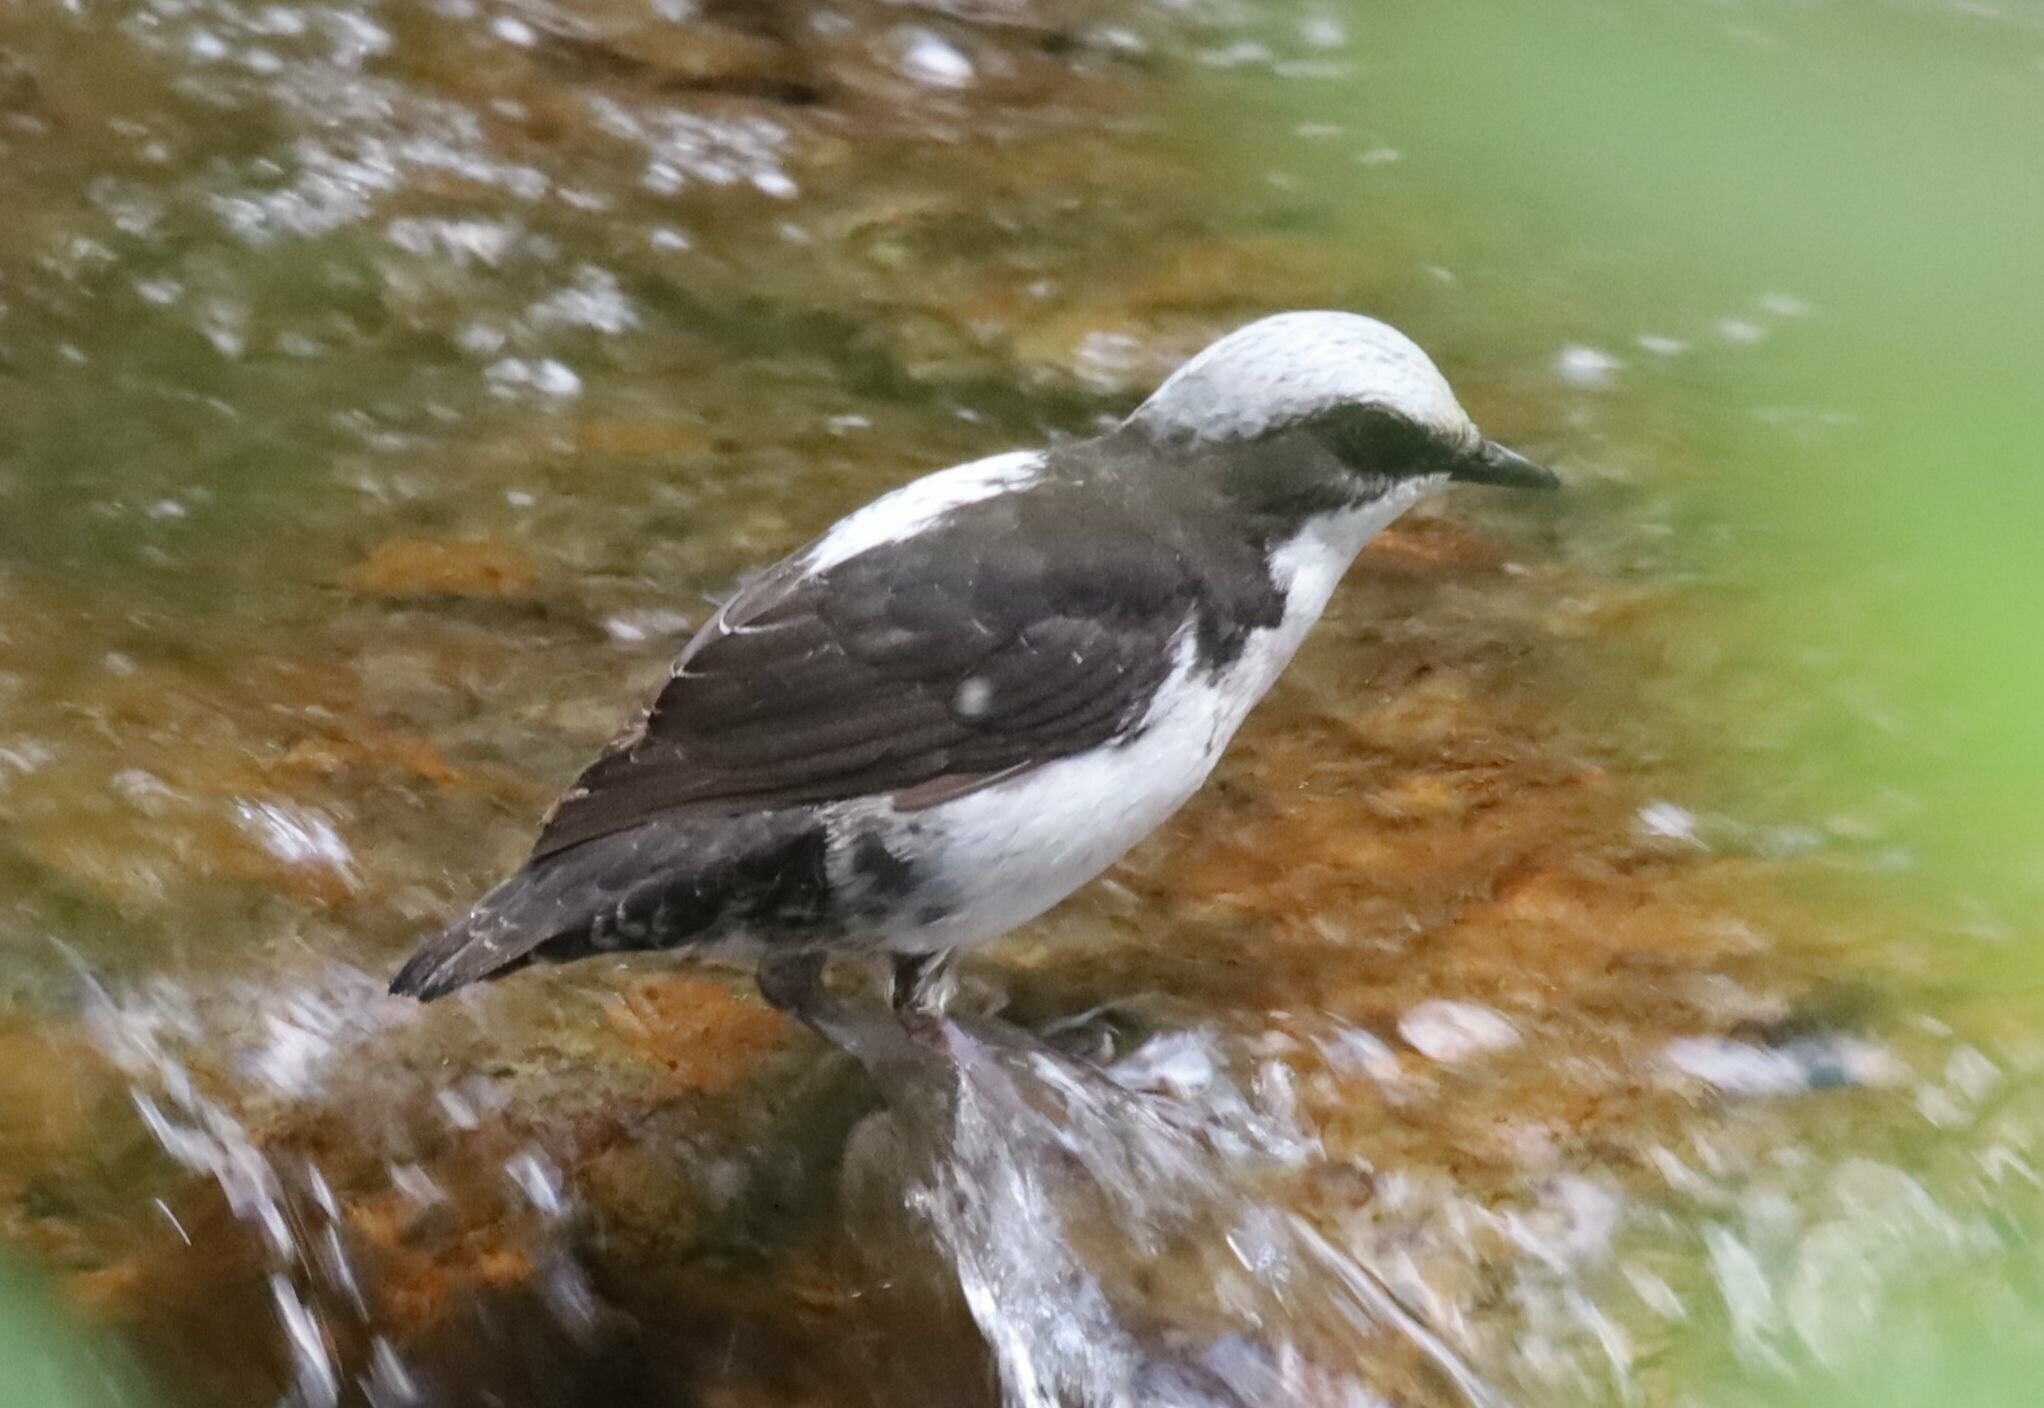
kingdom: Animalia
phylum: Chordata
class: Aves
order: Passeriformes
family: Cinclidae
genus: Cinclus
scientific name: Cinclus leucocephalus
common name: White-capped dipper
